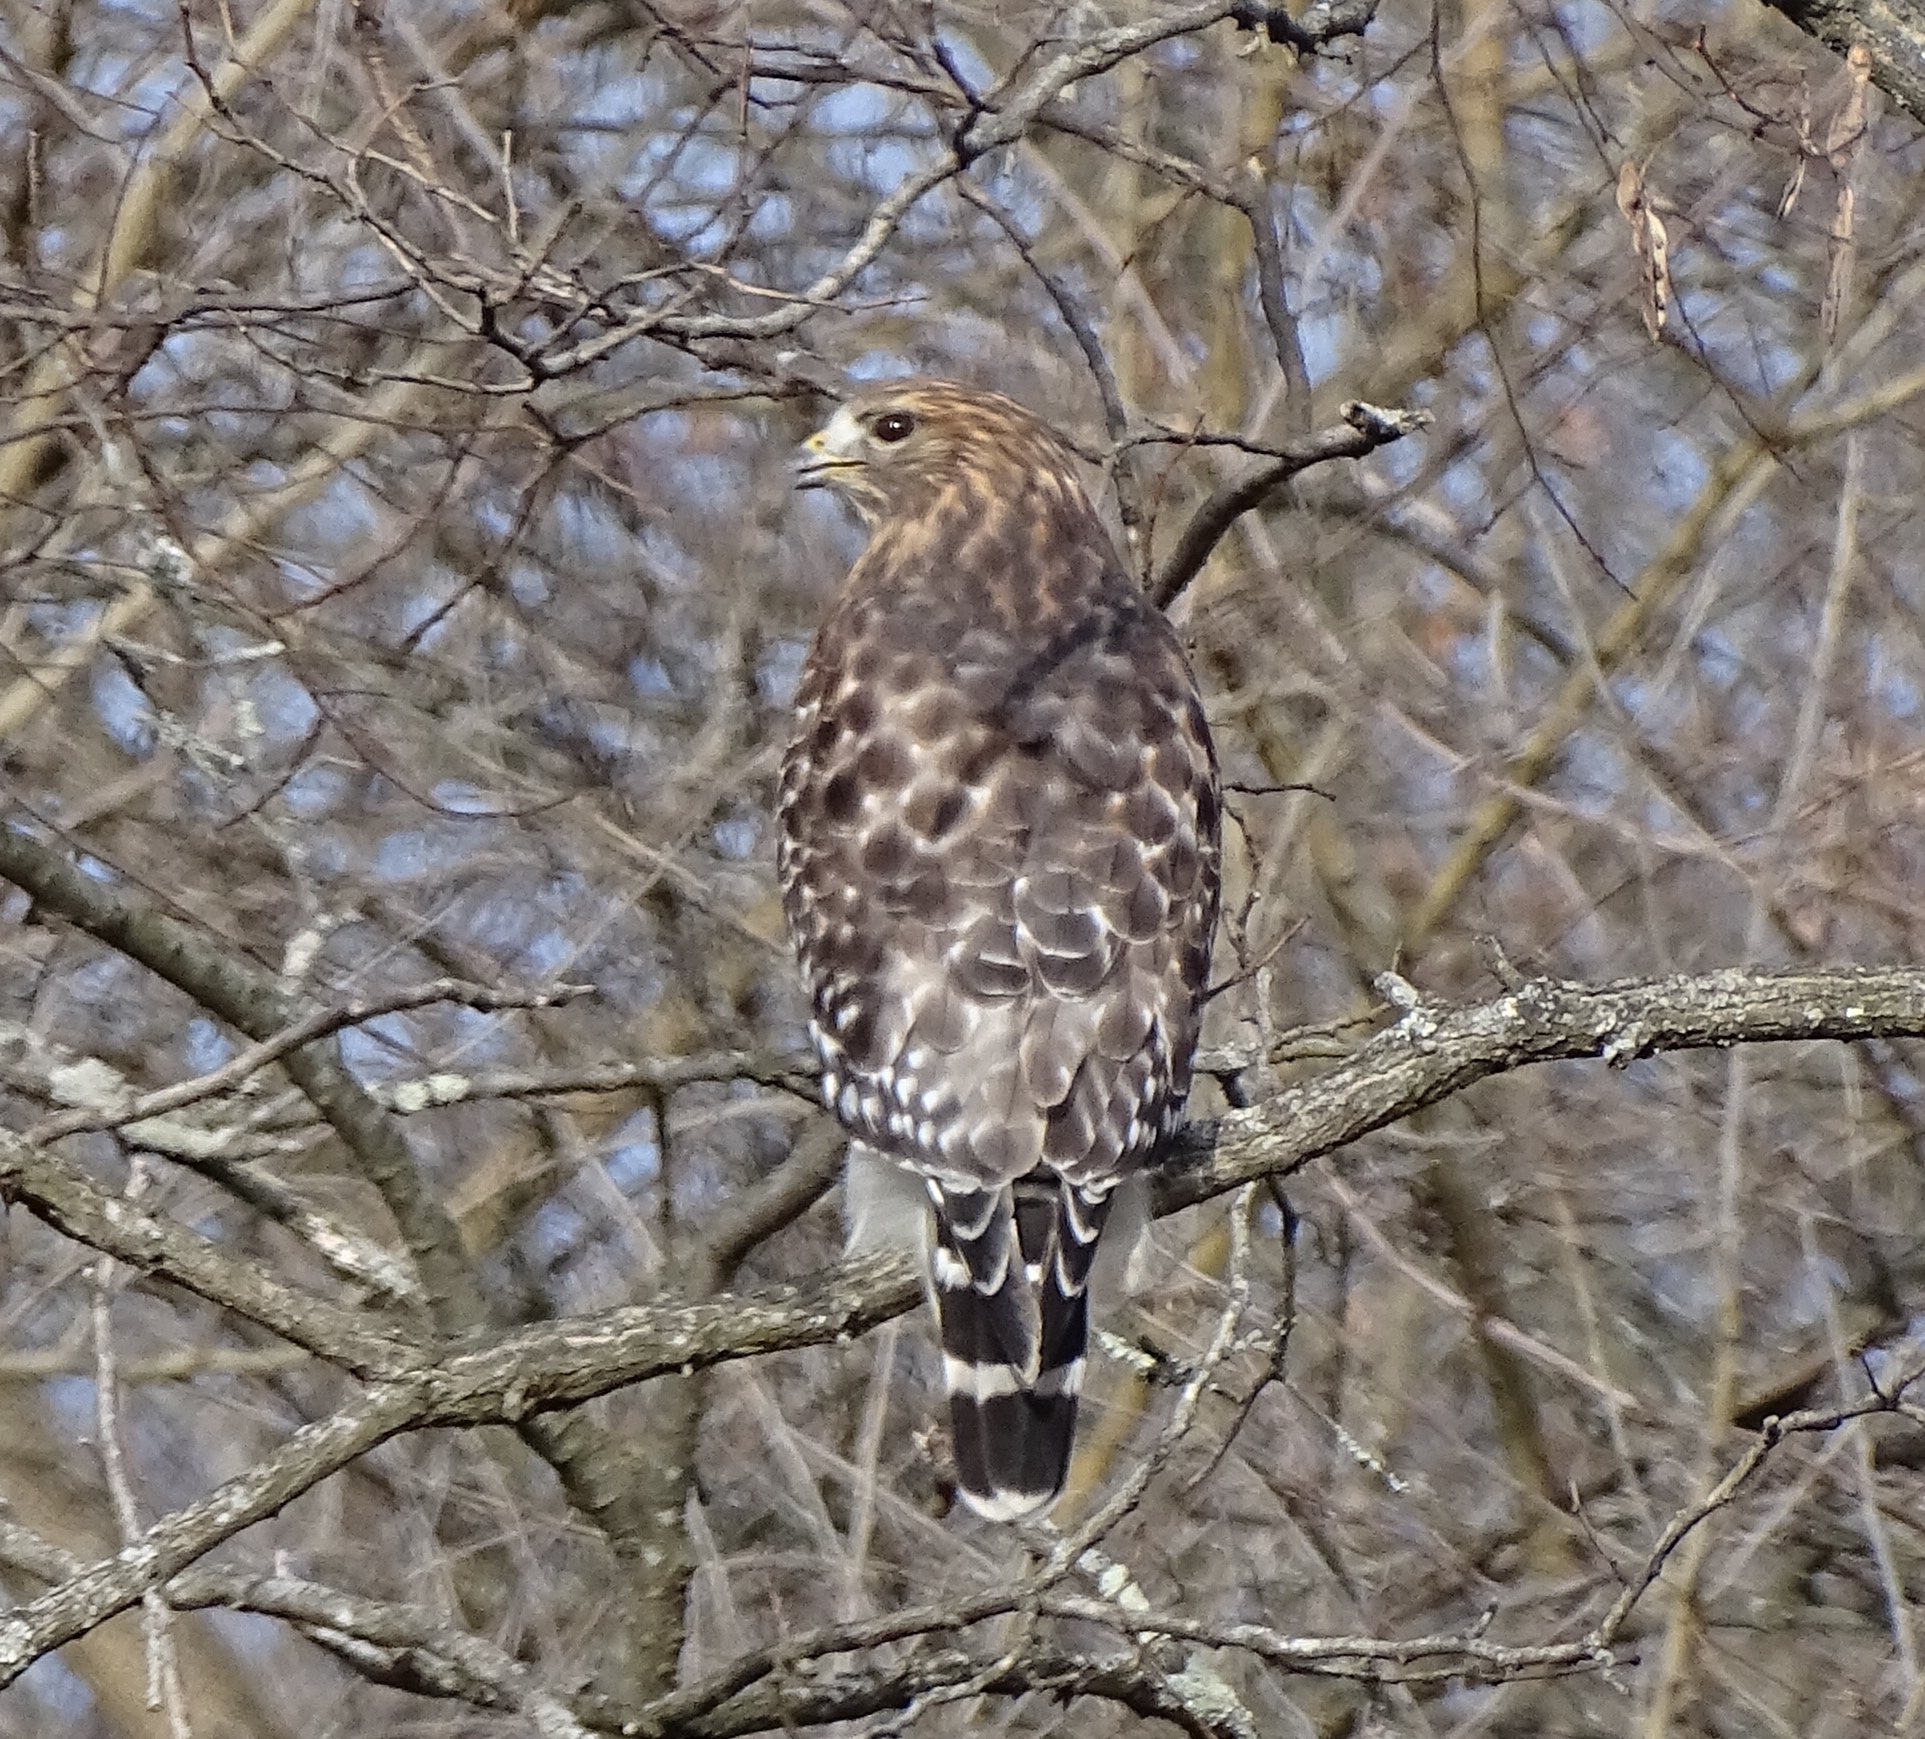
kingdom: Animalia
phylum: Chordata
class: Aves
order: Accipitriformes
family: Accipitridae
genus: Buteo
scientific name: Buteo lineatus
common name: Red-shouldered hawk
